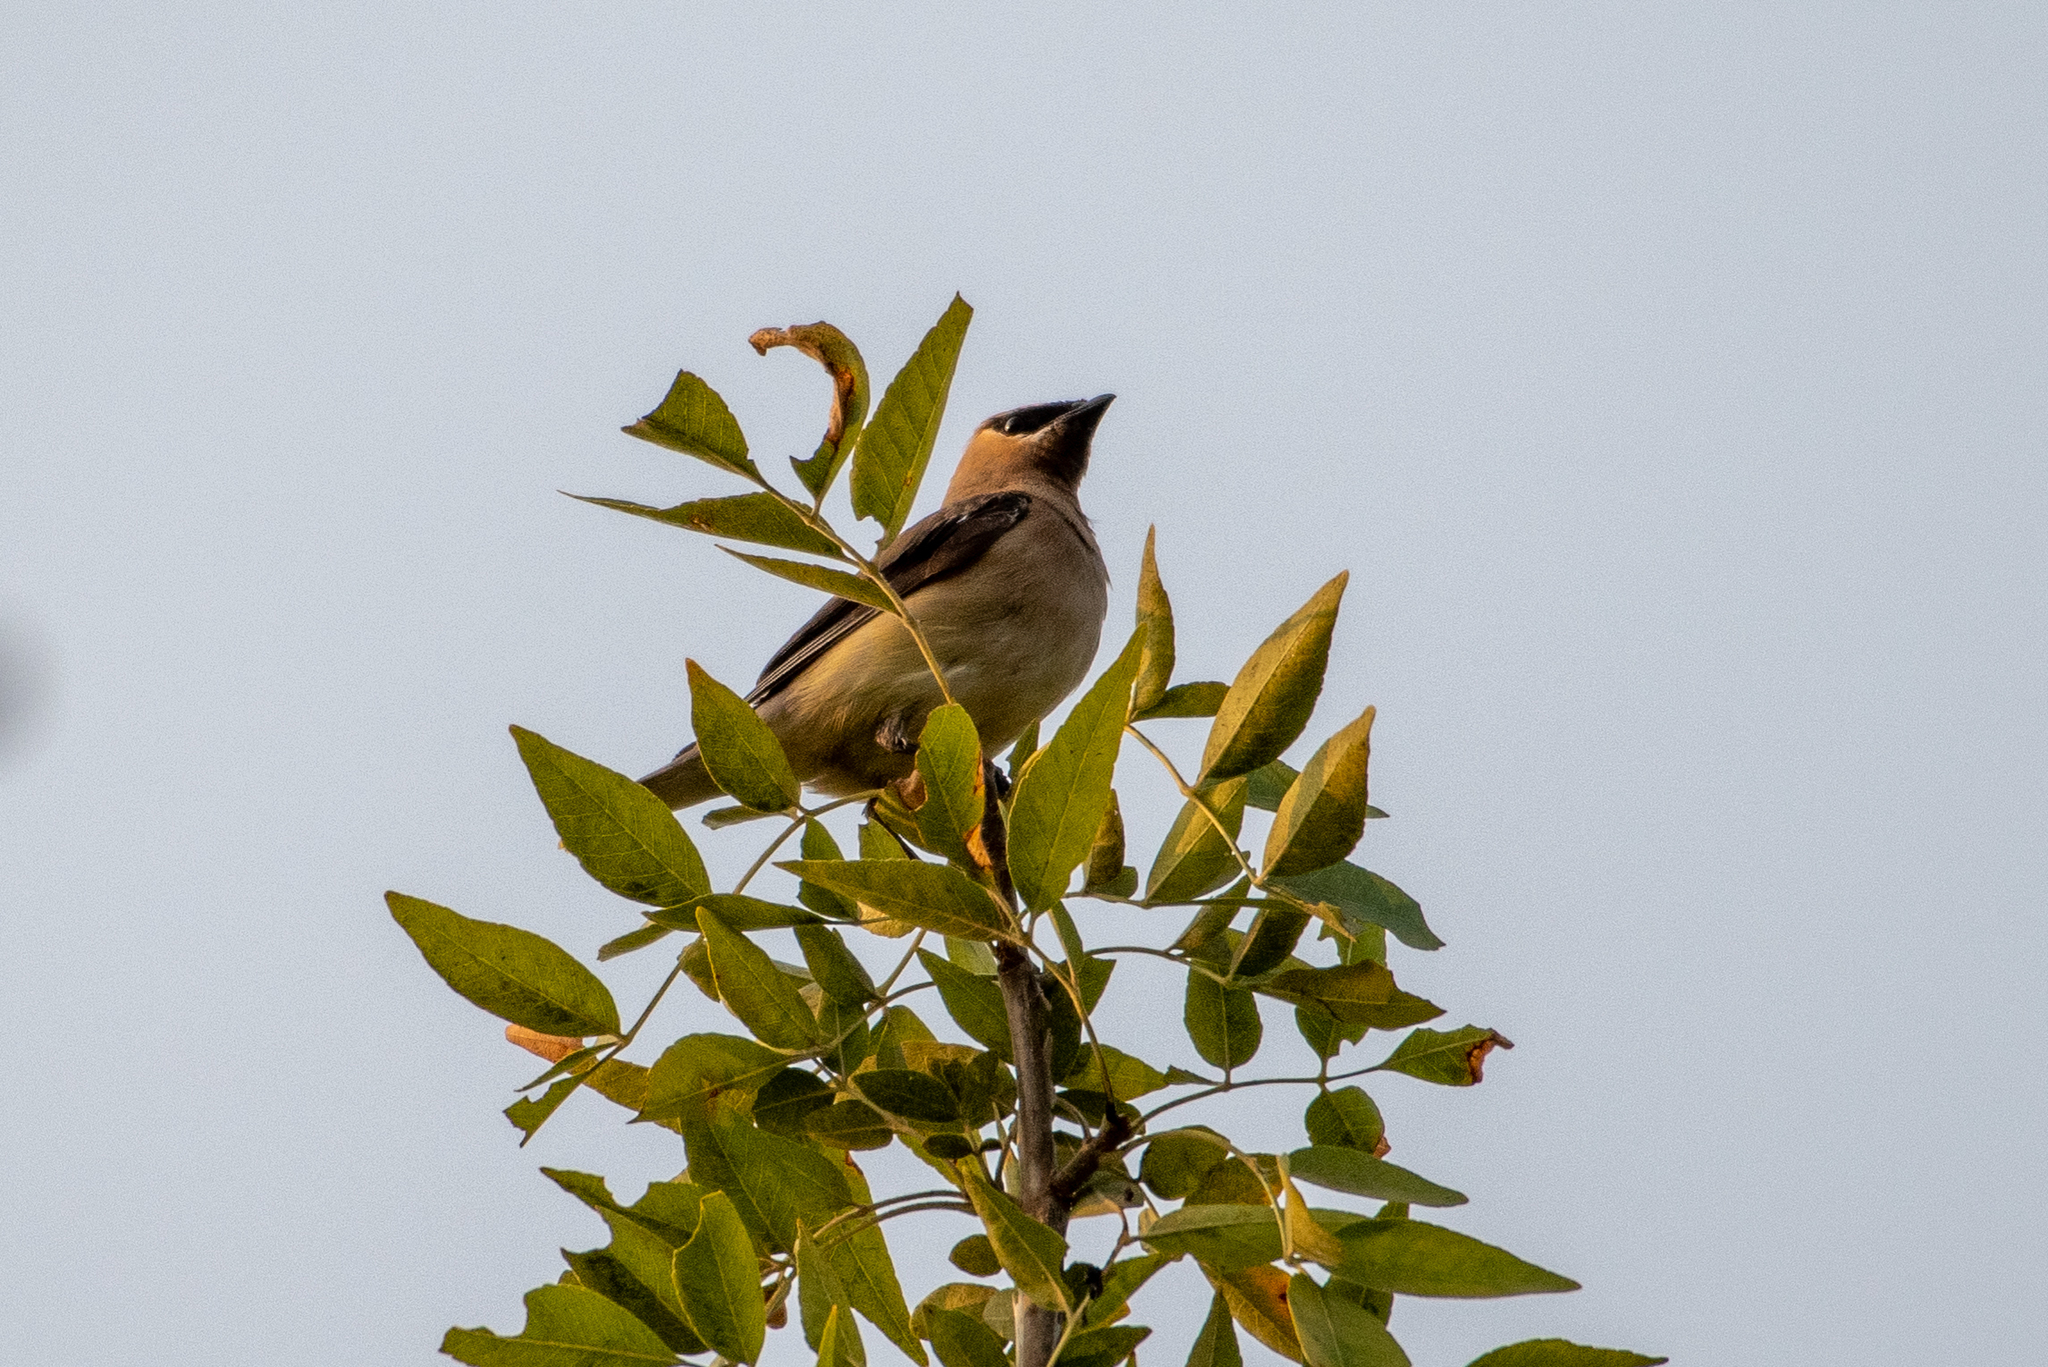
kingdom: Animalia
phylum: Chordata
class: Aves
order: Passeriformes
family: Bombycillidae
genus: Bombycilla
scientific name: Bombycilla cedrorum
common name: Cedar waxwing
